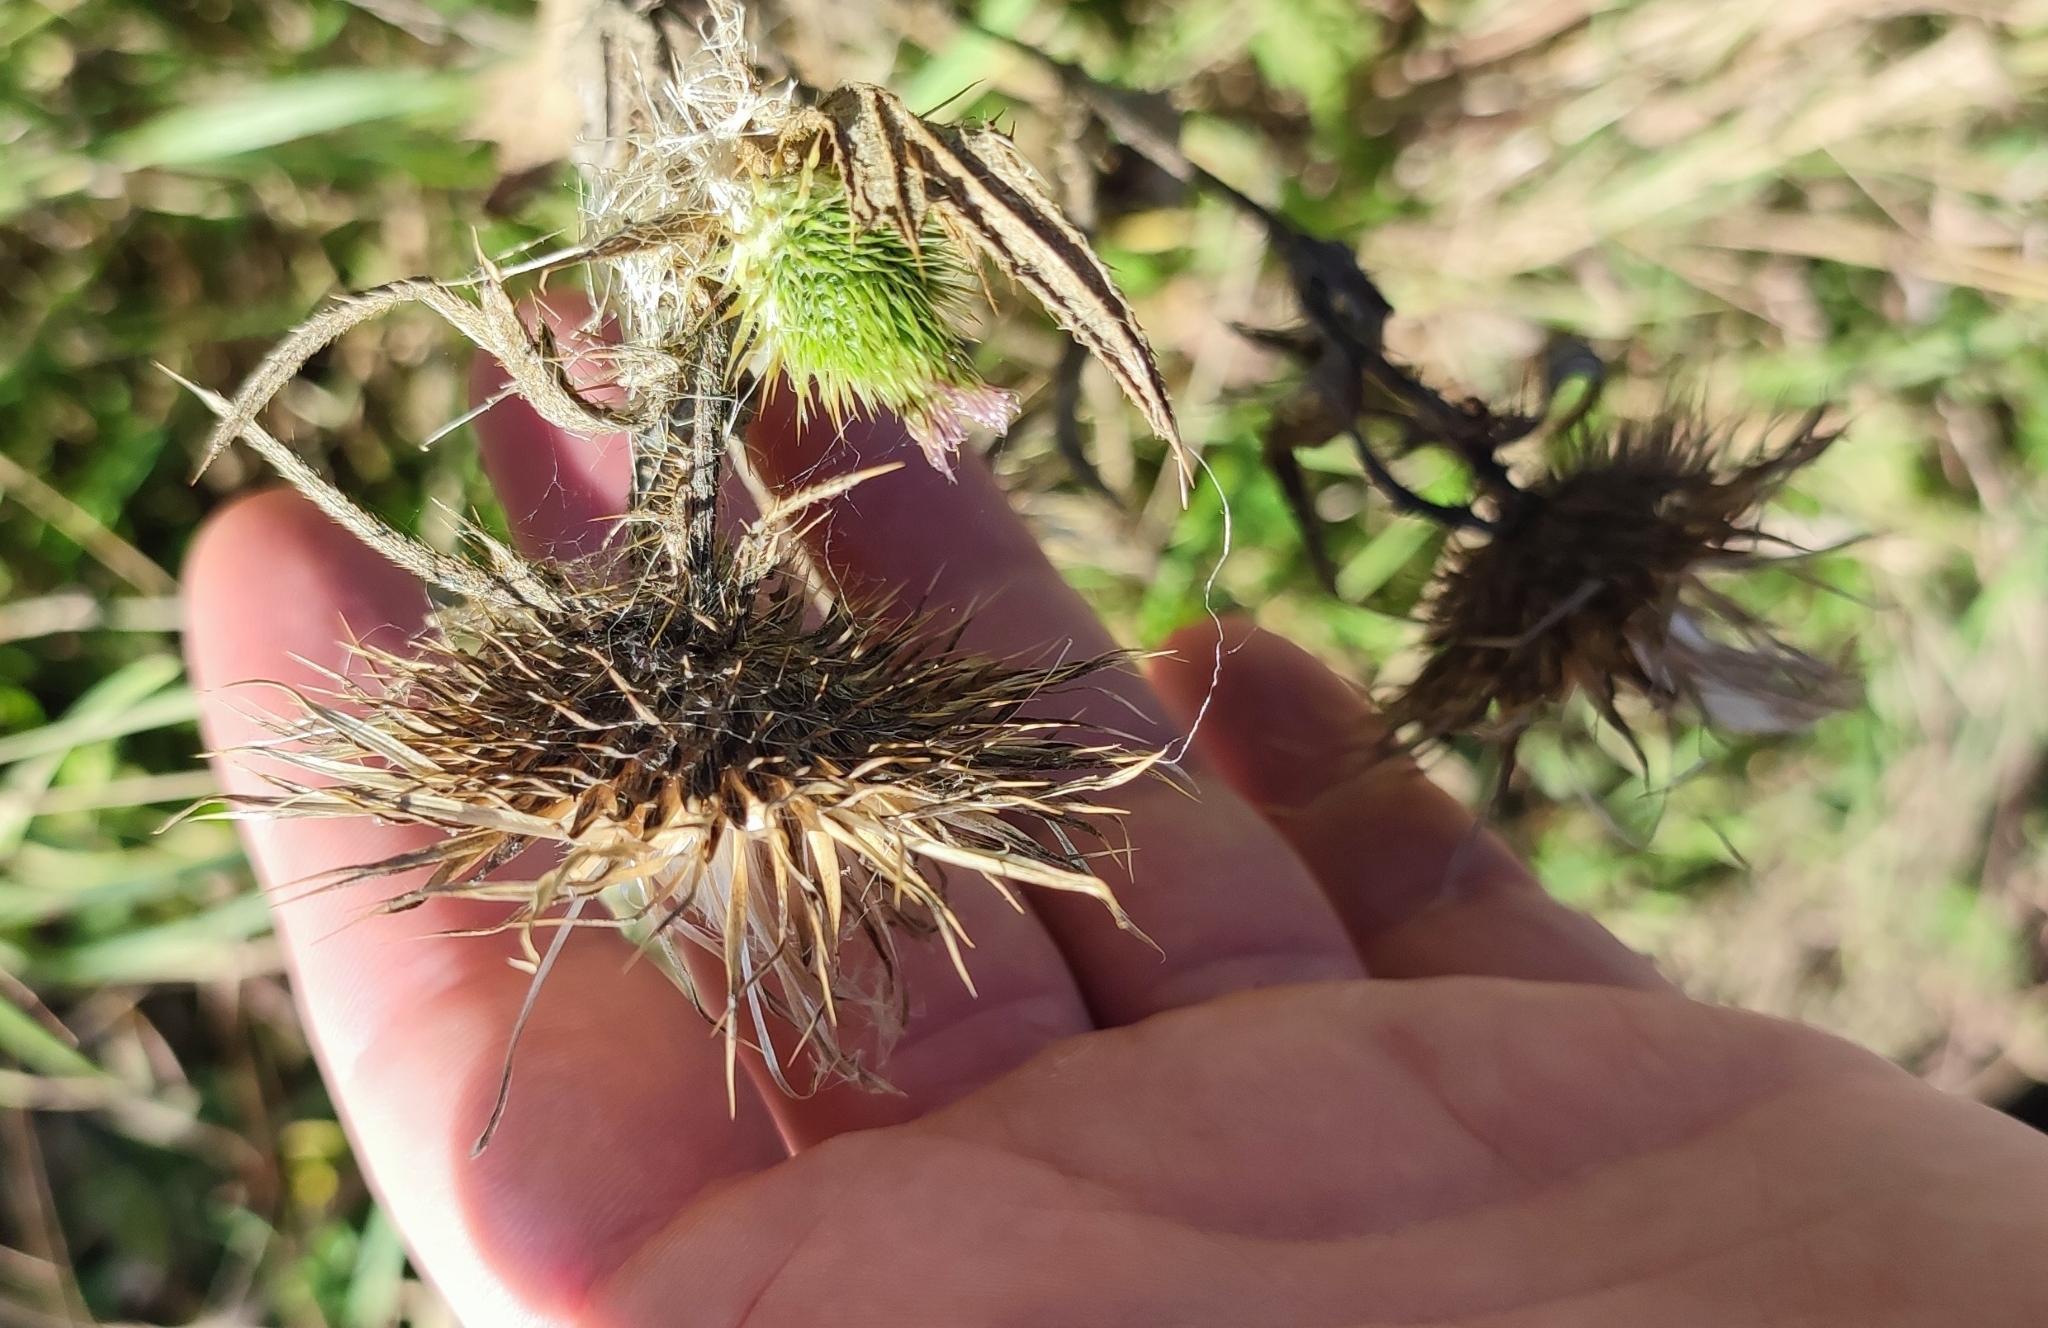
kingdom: Plantae
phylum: Tracheophyta
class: Magnoliopsida
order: Asterales
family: Asteraceae
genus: Cirsium
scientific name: Cirsium vulgare
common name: Bull thistle
